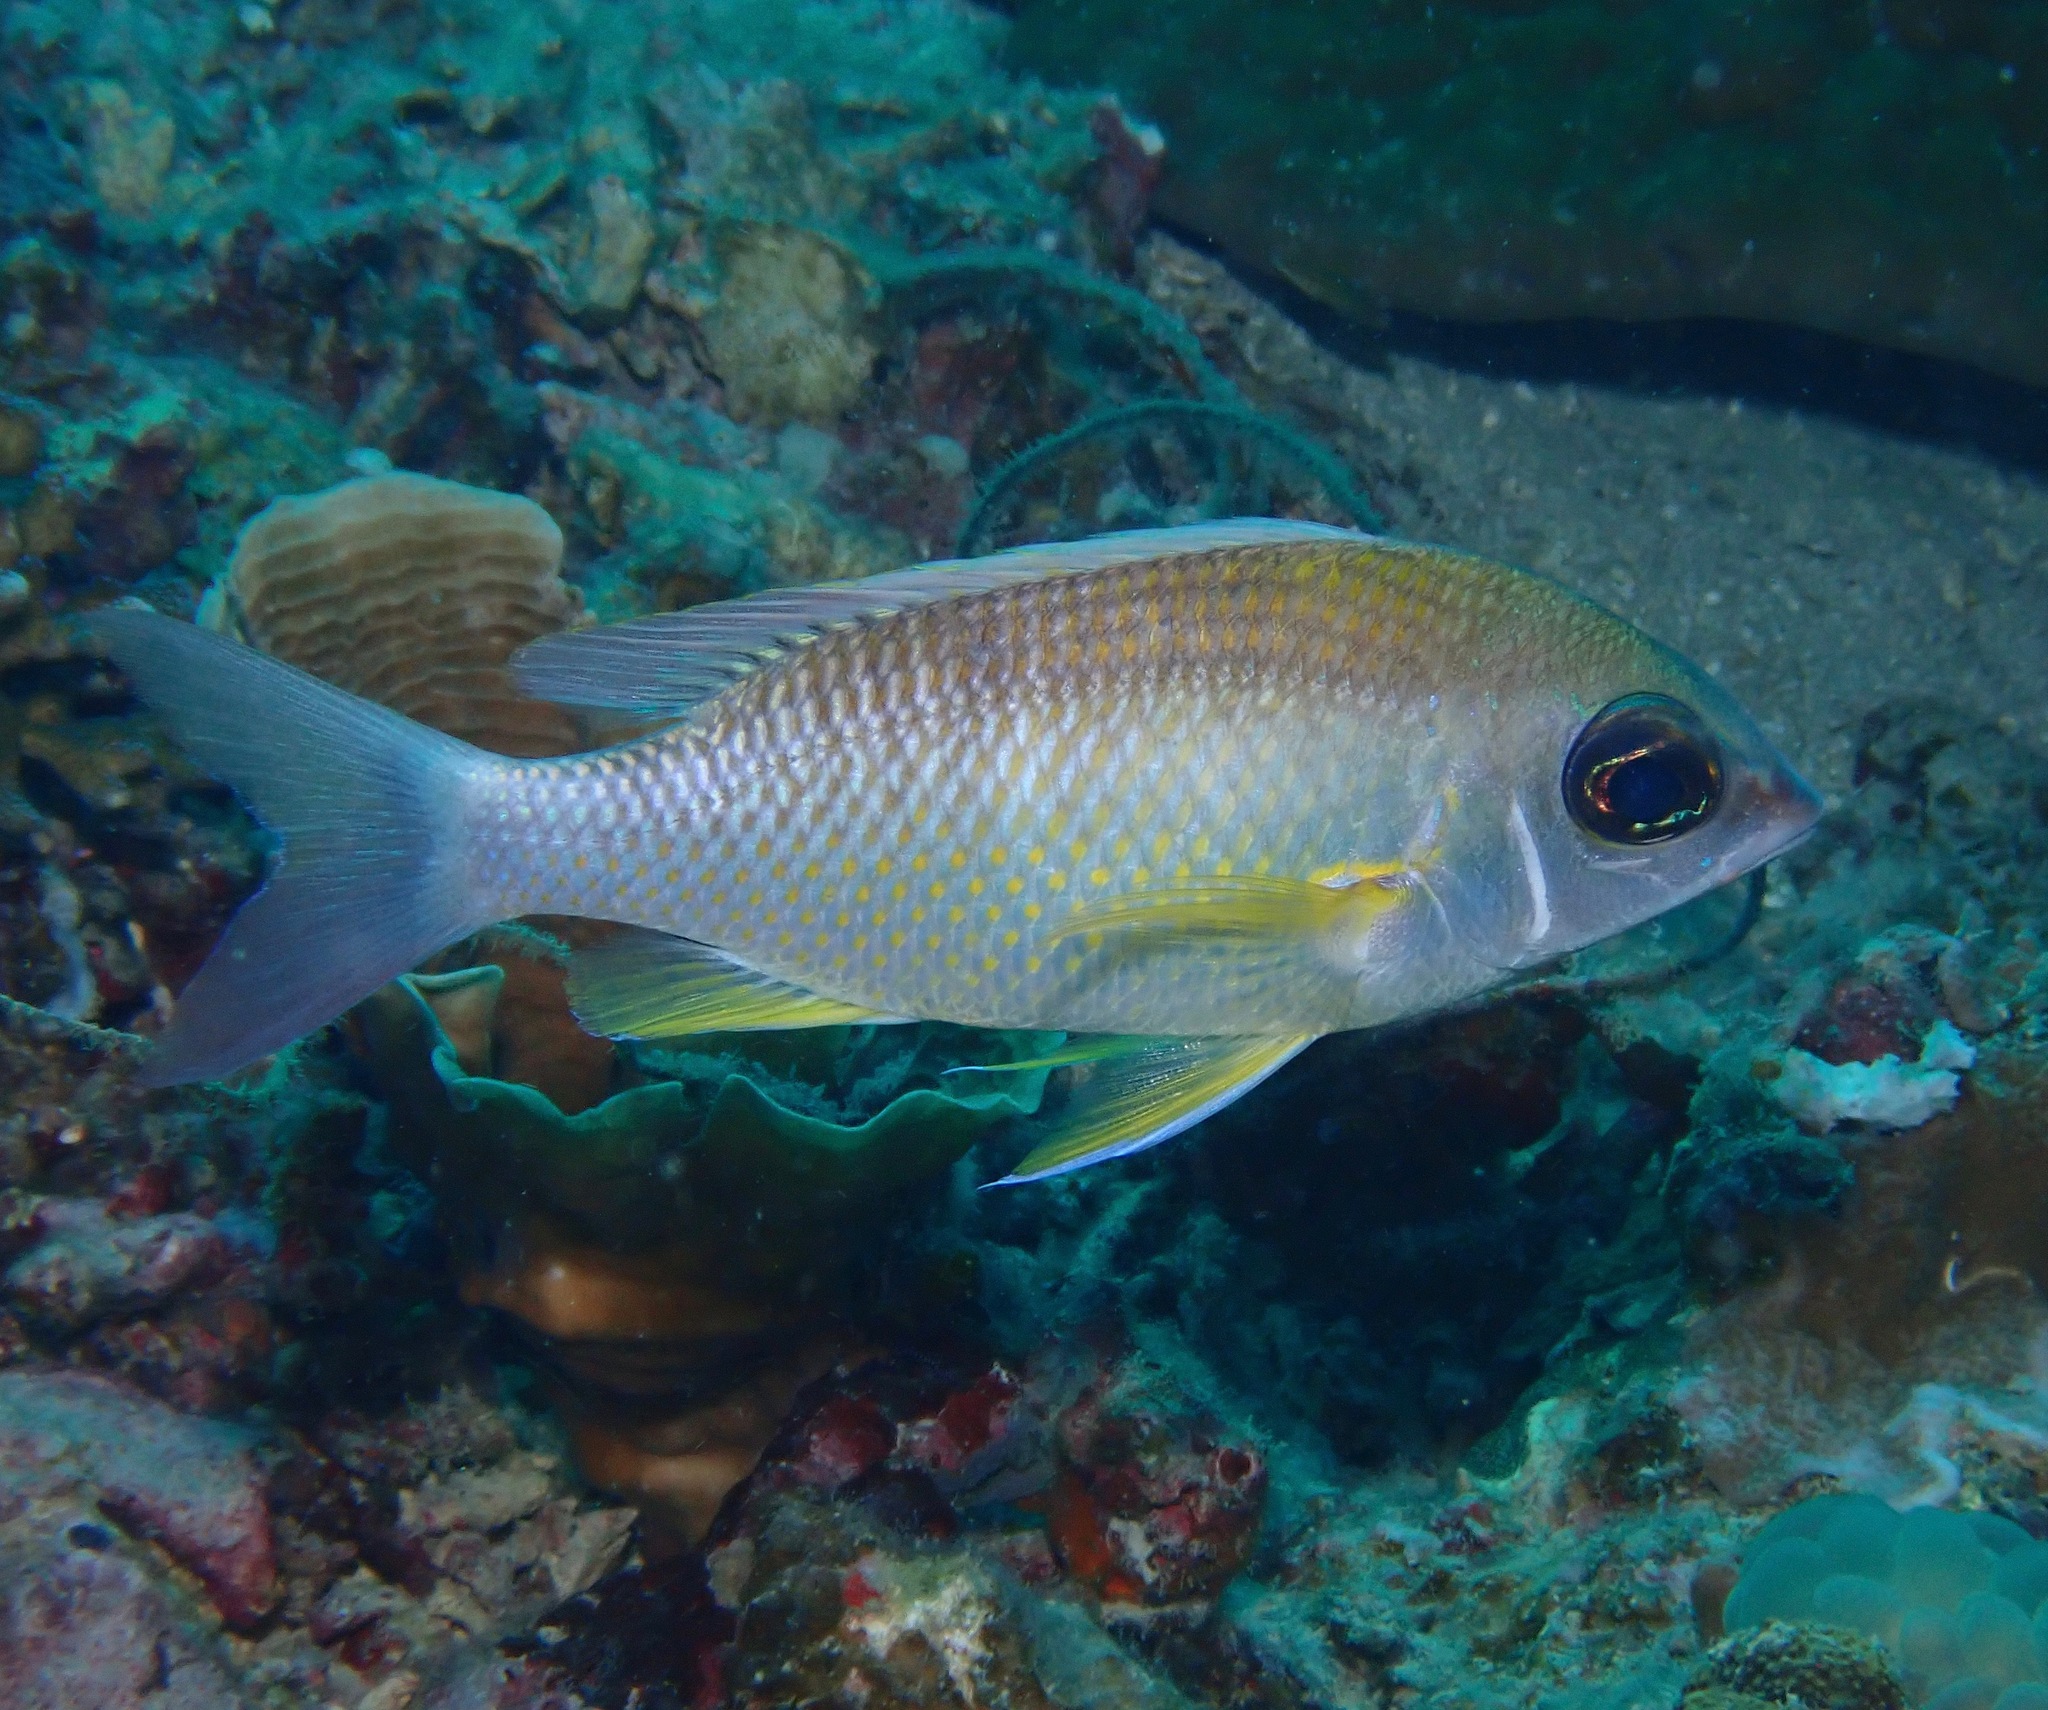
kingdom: Animalia
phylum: Chordata
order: Perciformes
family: Nemipteridae
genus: Scolopsis
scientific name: Scolopsis margaritifera
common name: Pearly monocle bream
